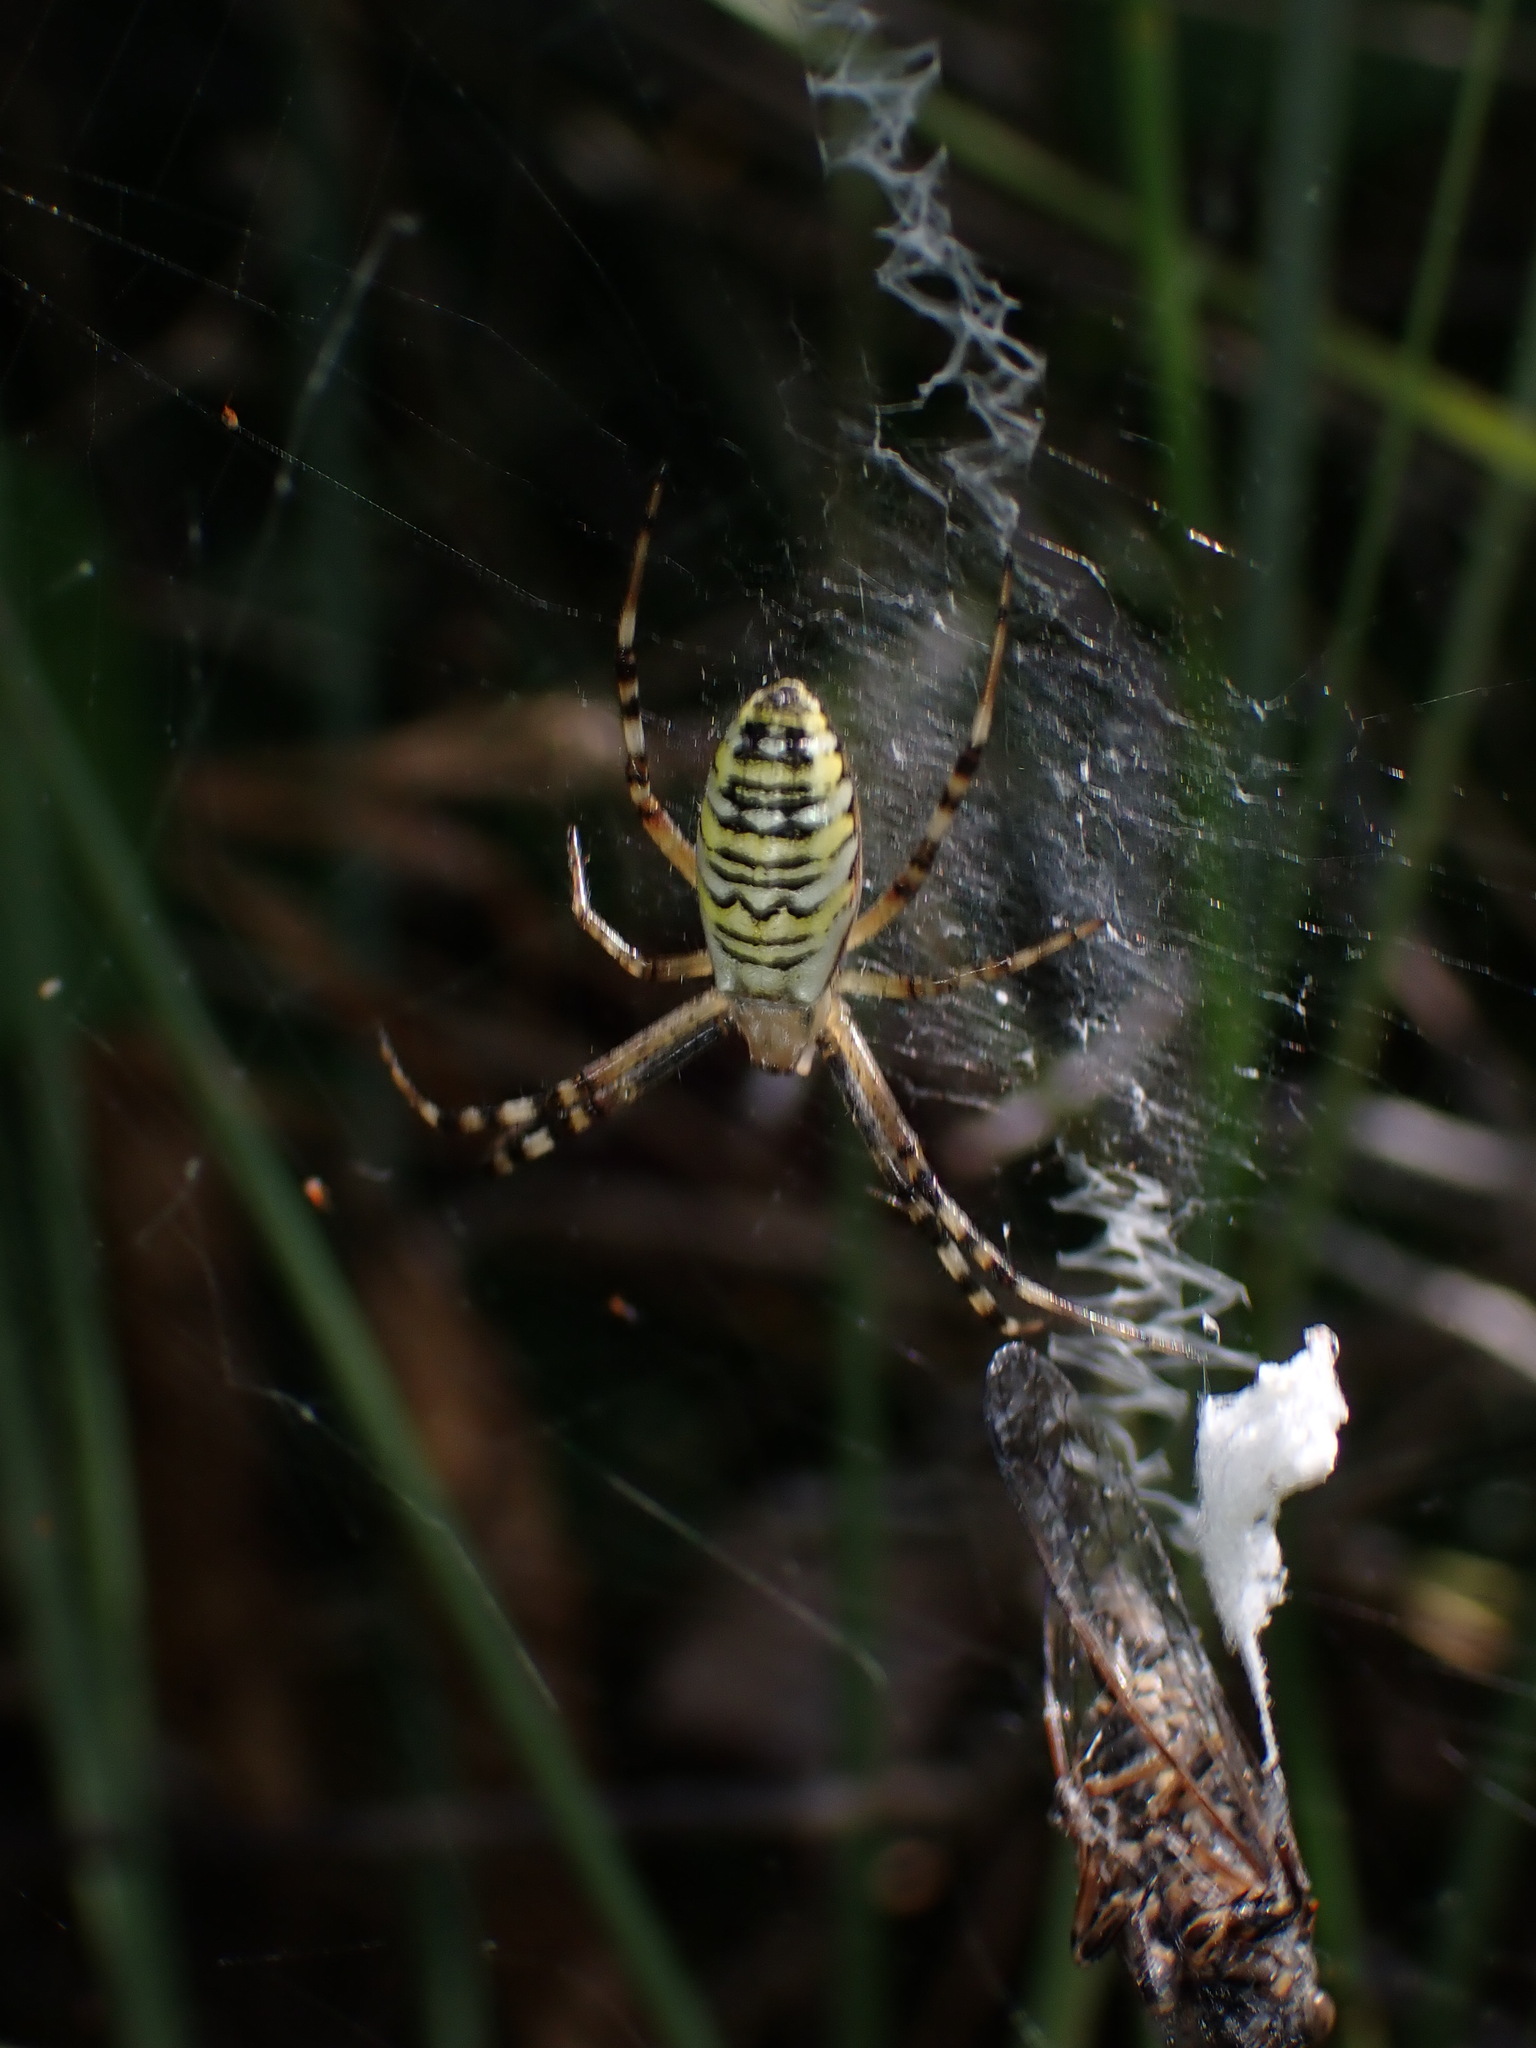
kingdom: Animalia
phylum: Arthropoda
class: Arachnida
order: Araneae
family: Araneidae
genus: Argiope
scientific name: Argiope bruennichi
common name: Wasp spider
